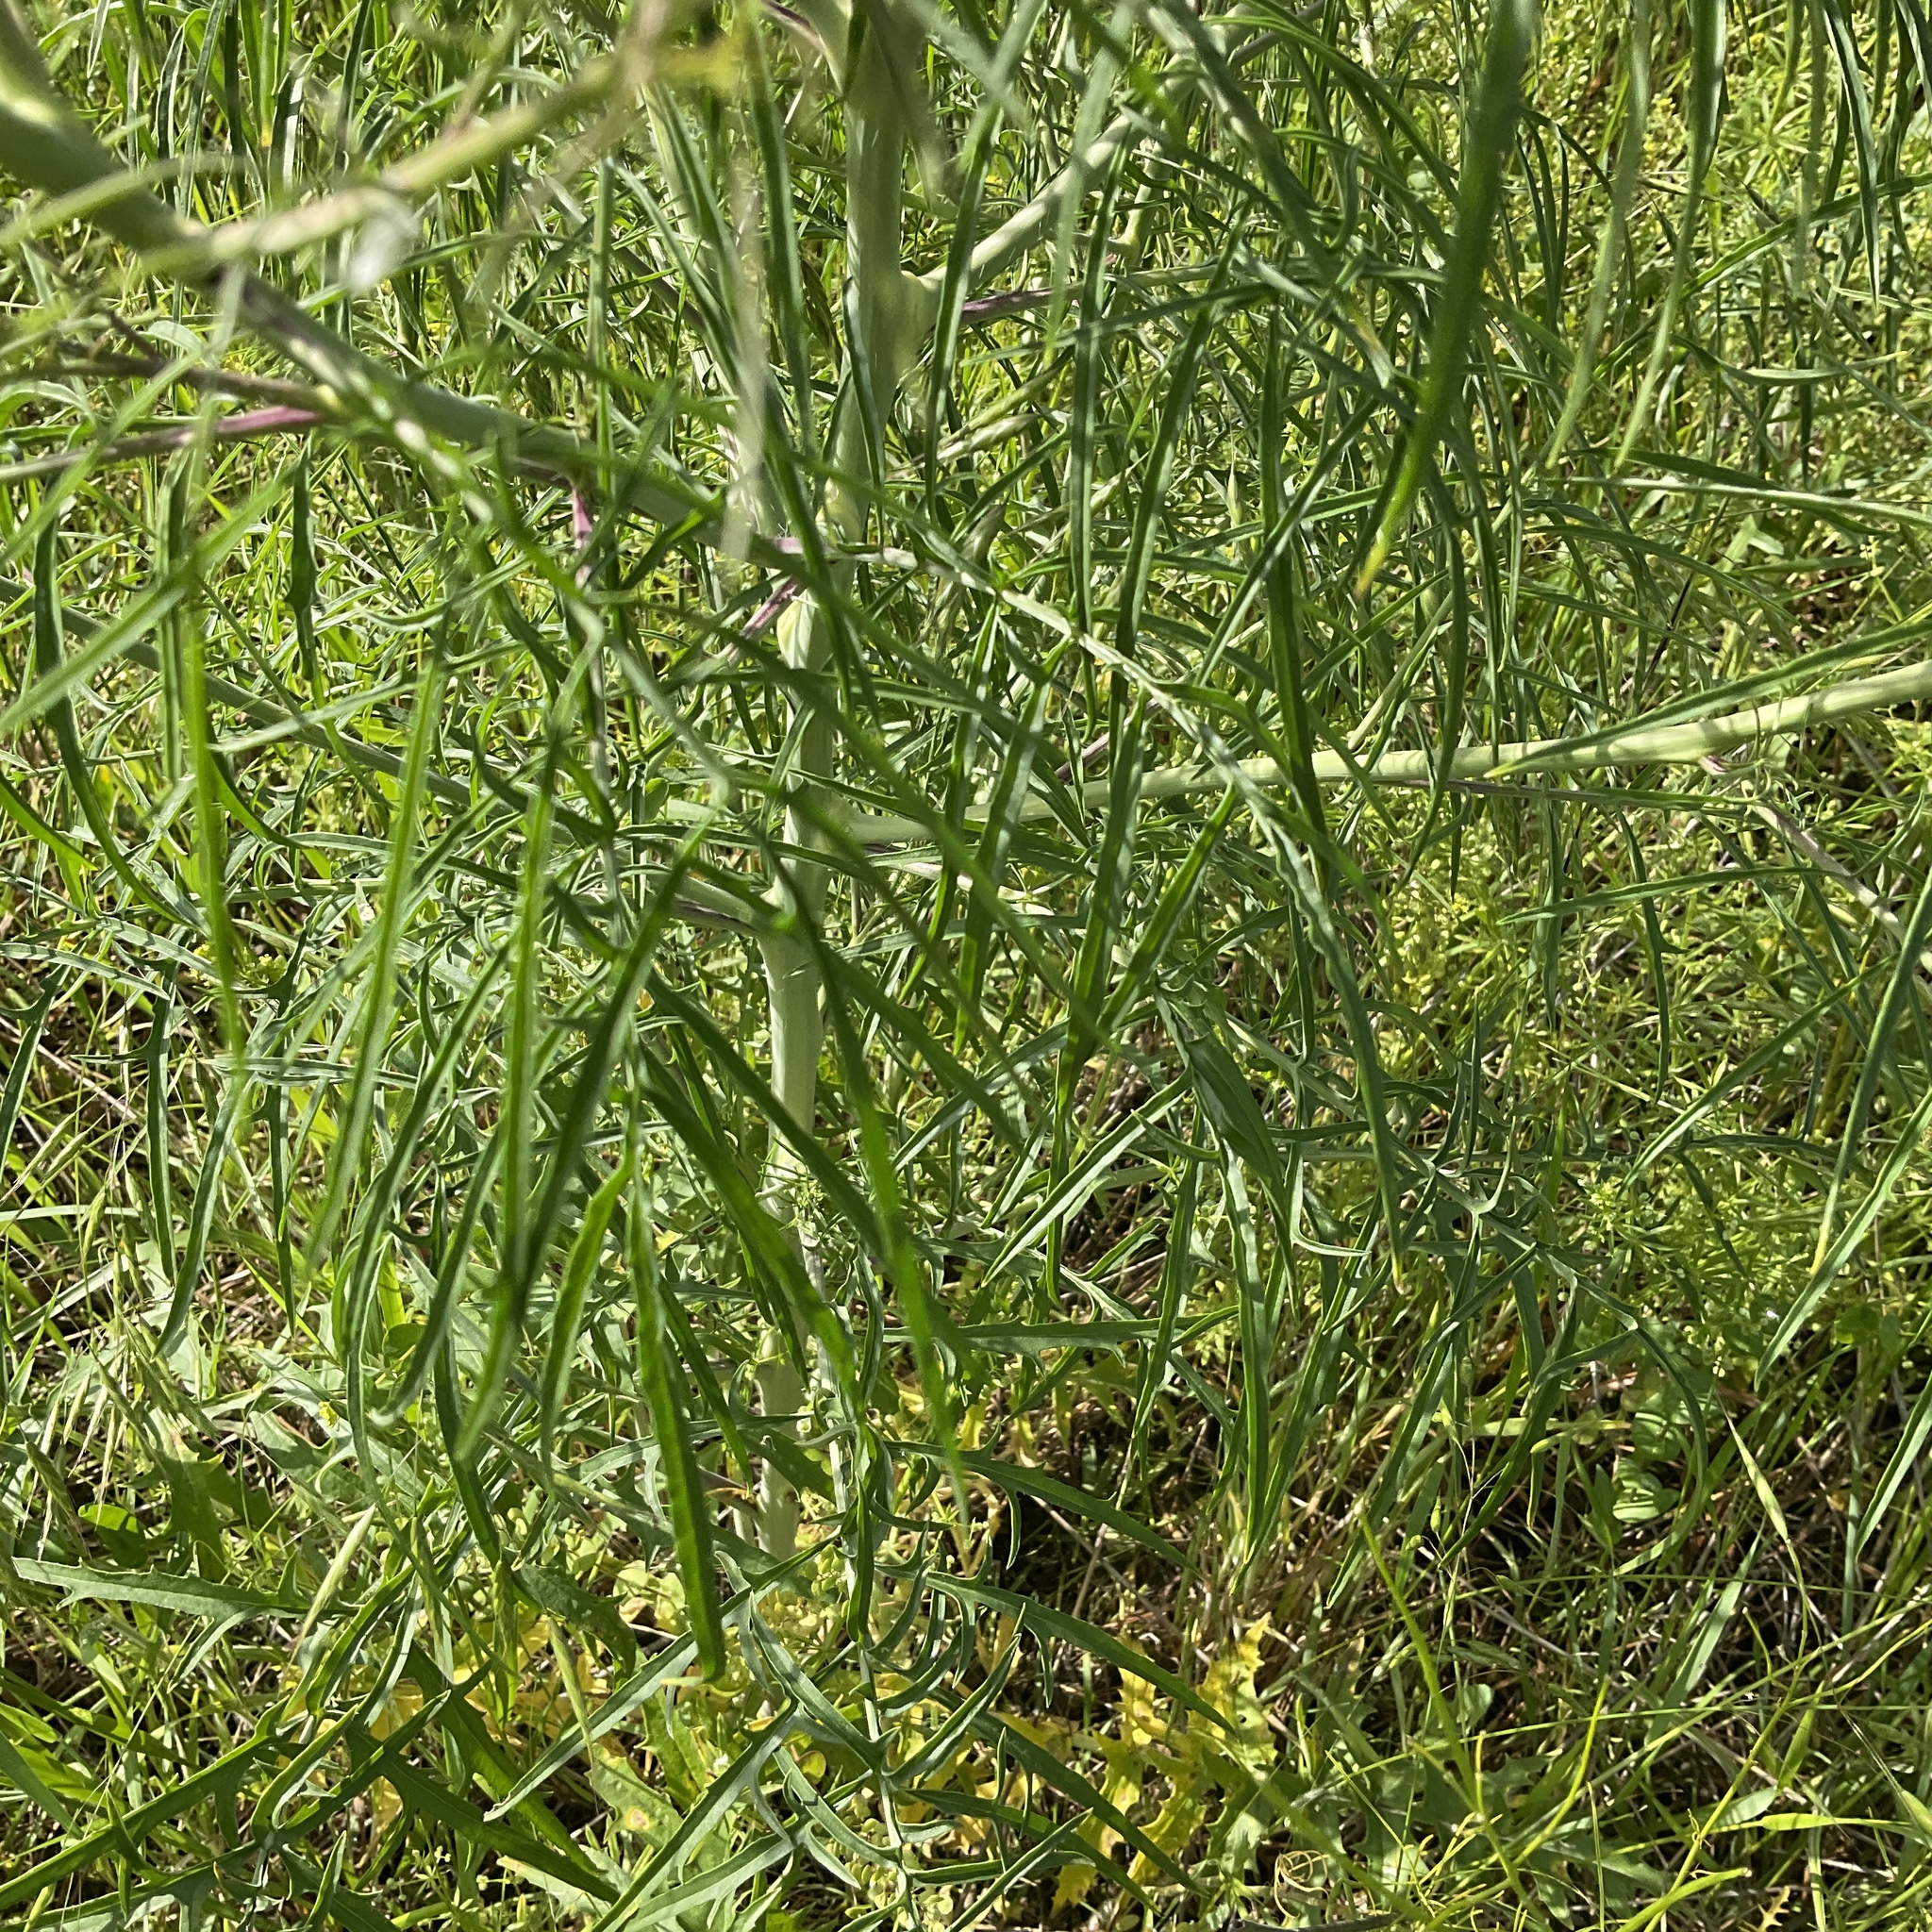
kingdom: Plantae
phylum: Tracheophyta
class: Magnoliopsida
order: Brassicales
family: Brassicaceae
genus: Sisymbrium
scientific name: Sisymbrium altissimum
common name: Tall rocket
